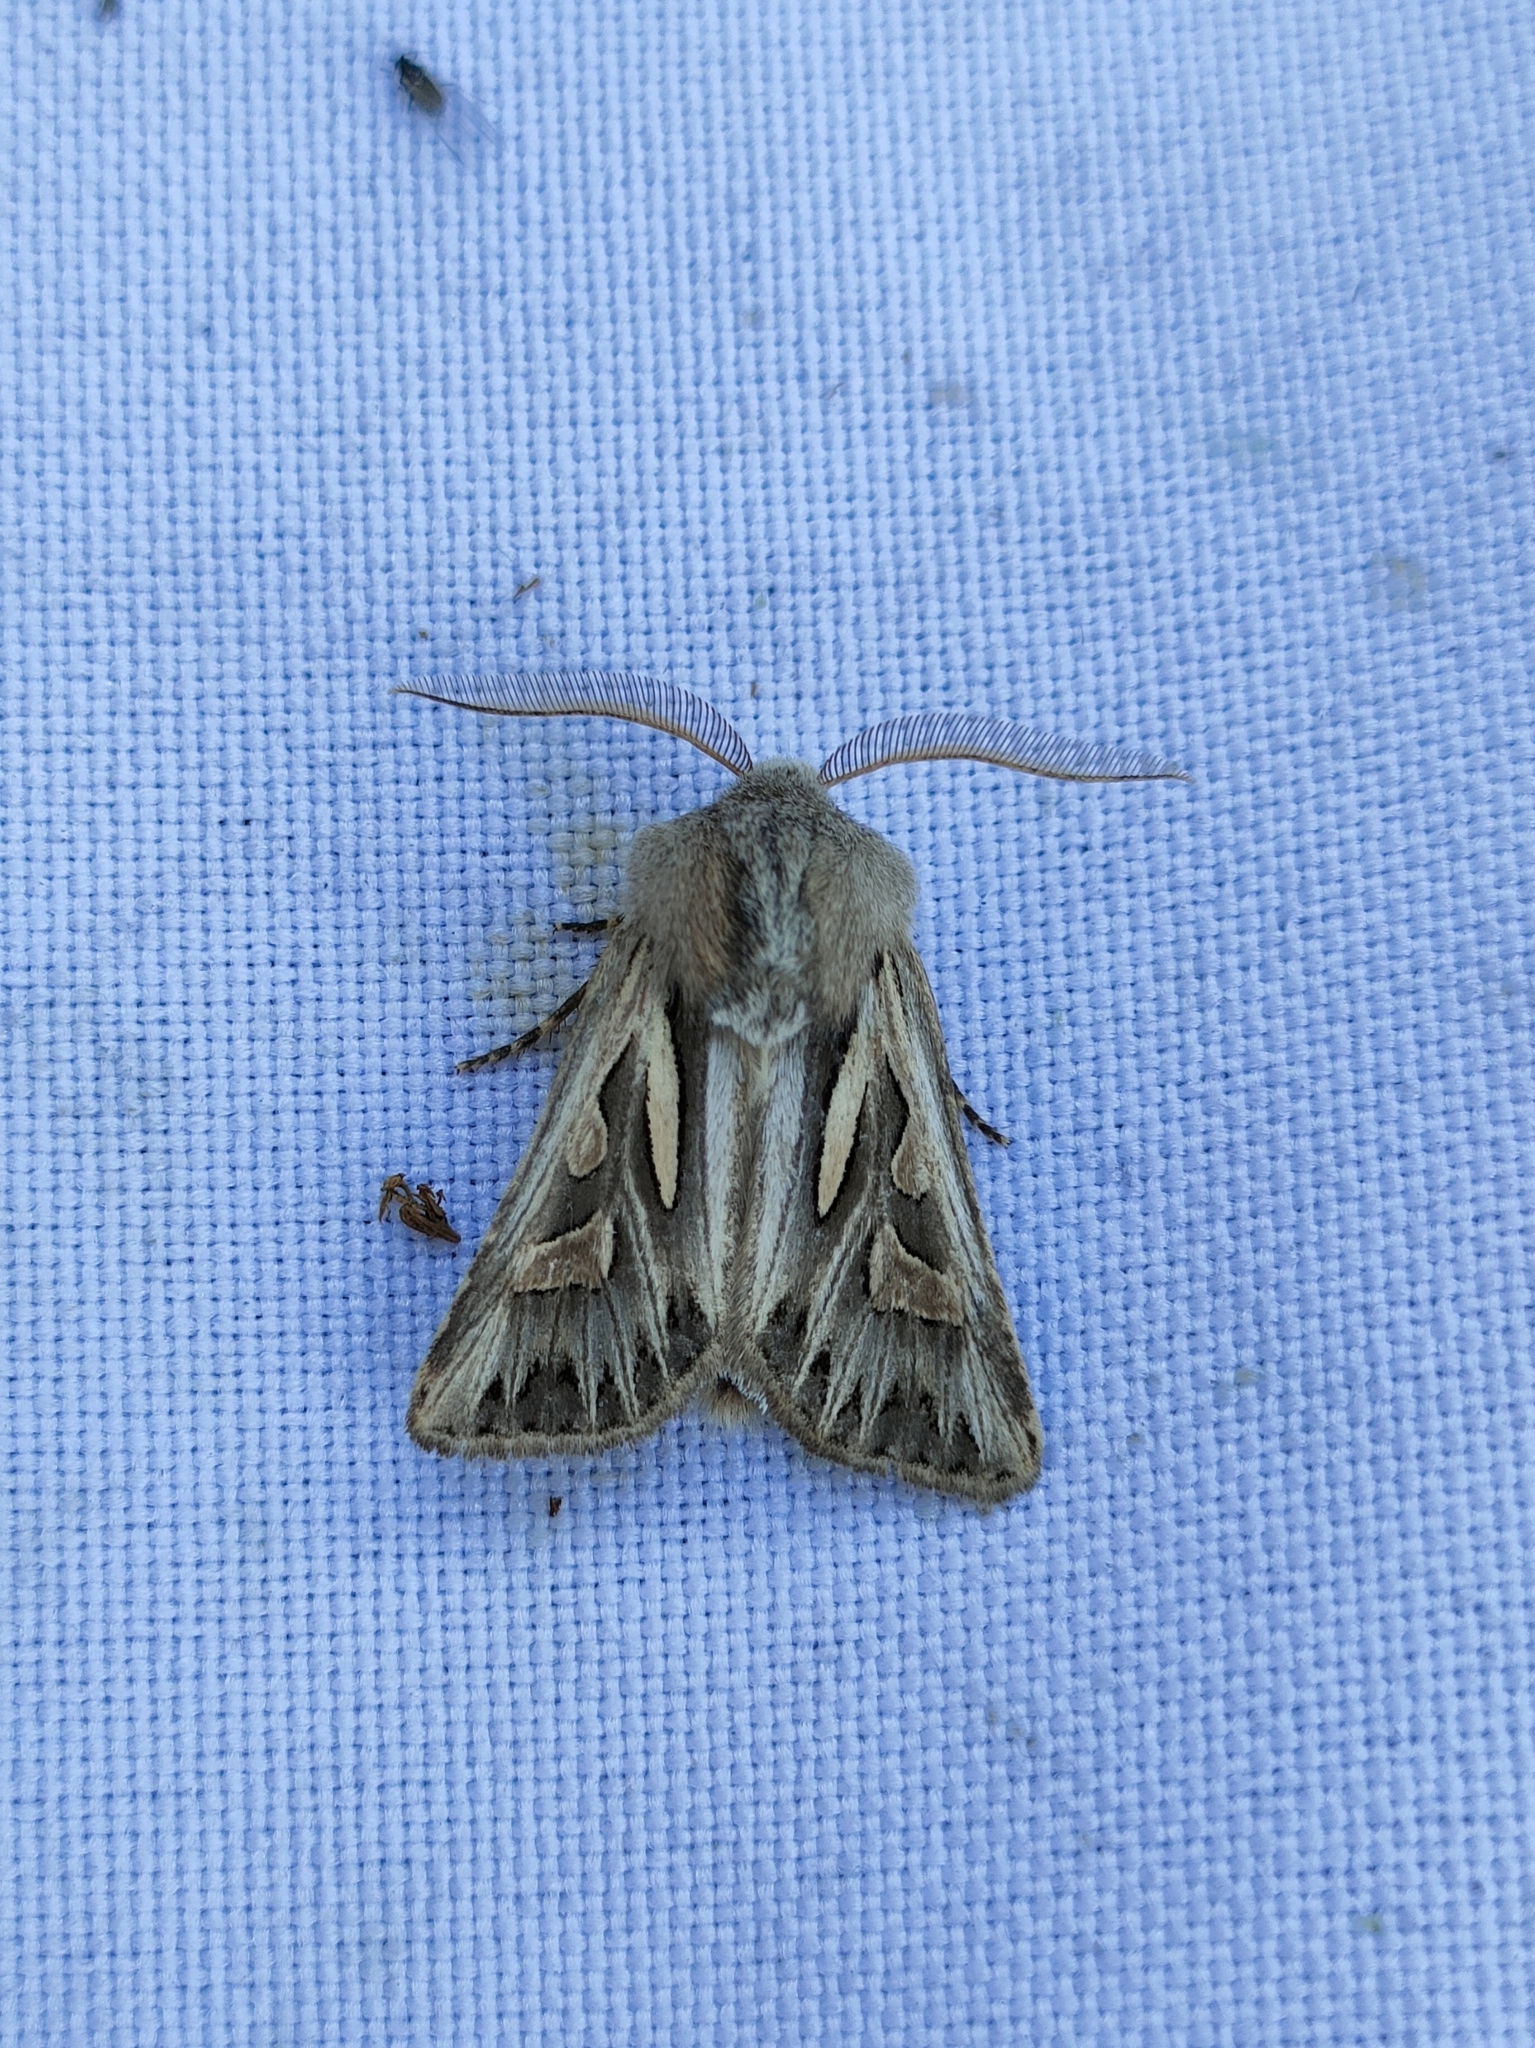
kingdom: Animalia
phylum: Arthropoda
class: Insecta
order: Lepidoptera
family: Noctuidae
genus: Eucoptocnemis
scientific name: Eucoptocnemis optabilis
